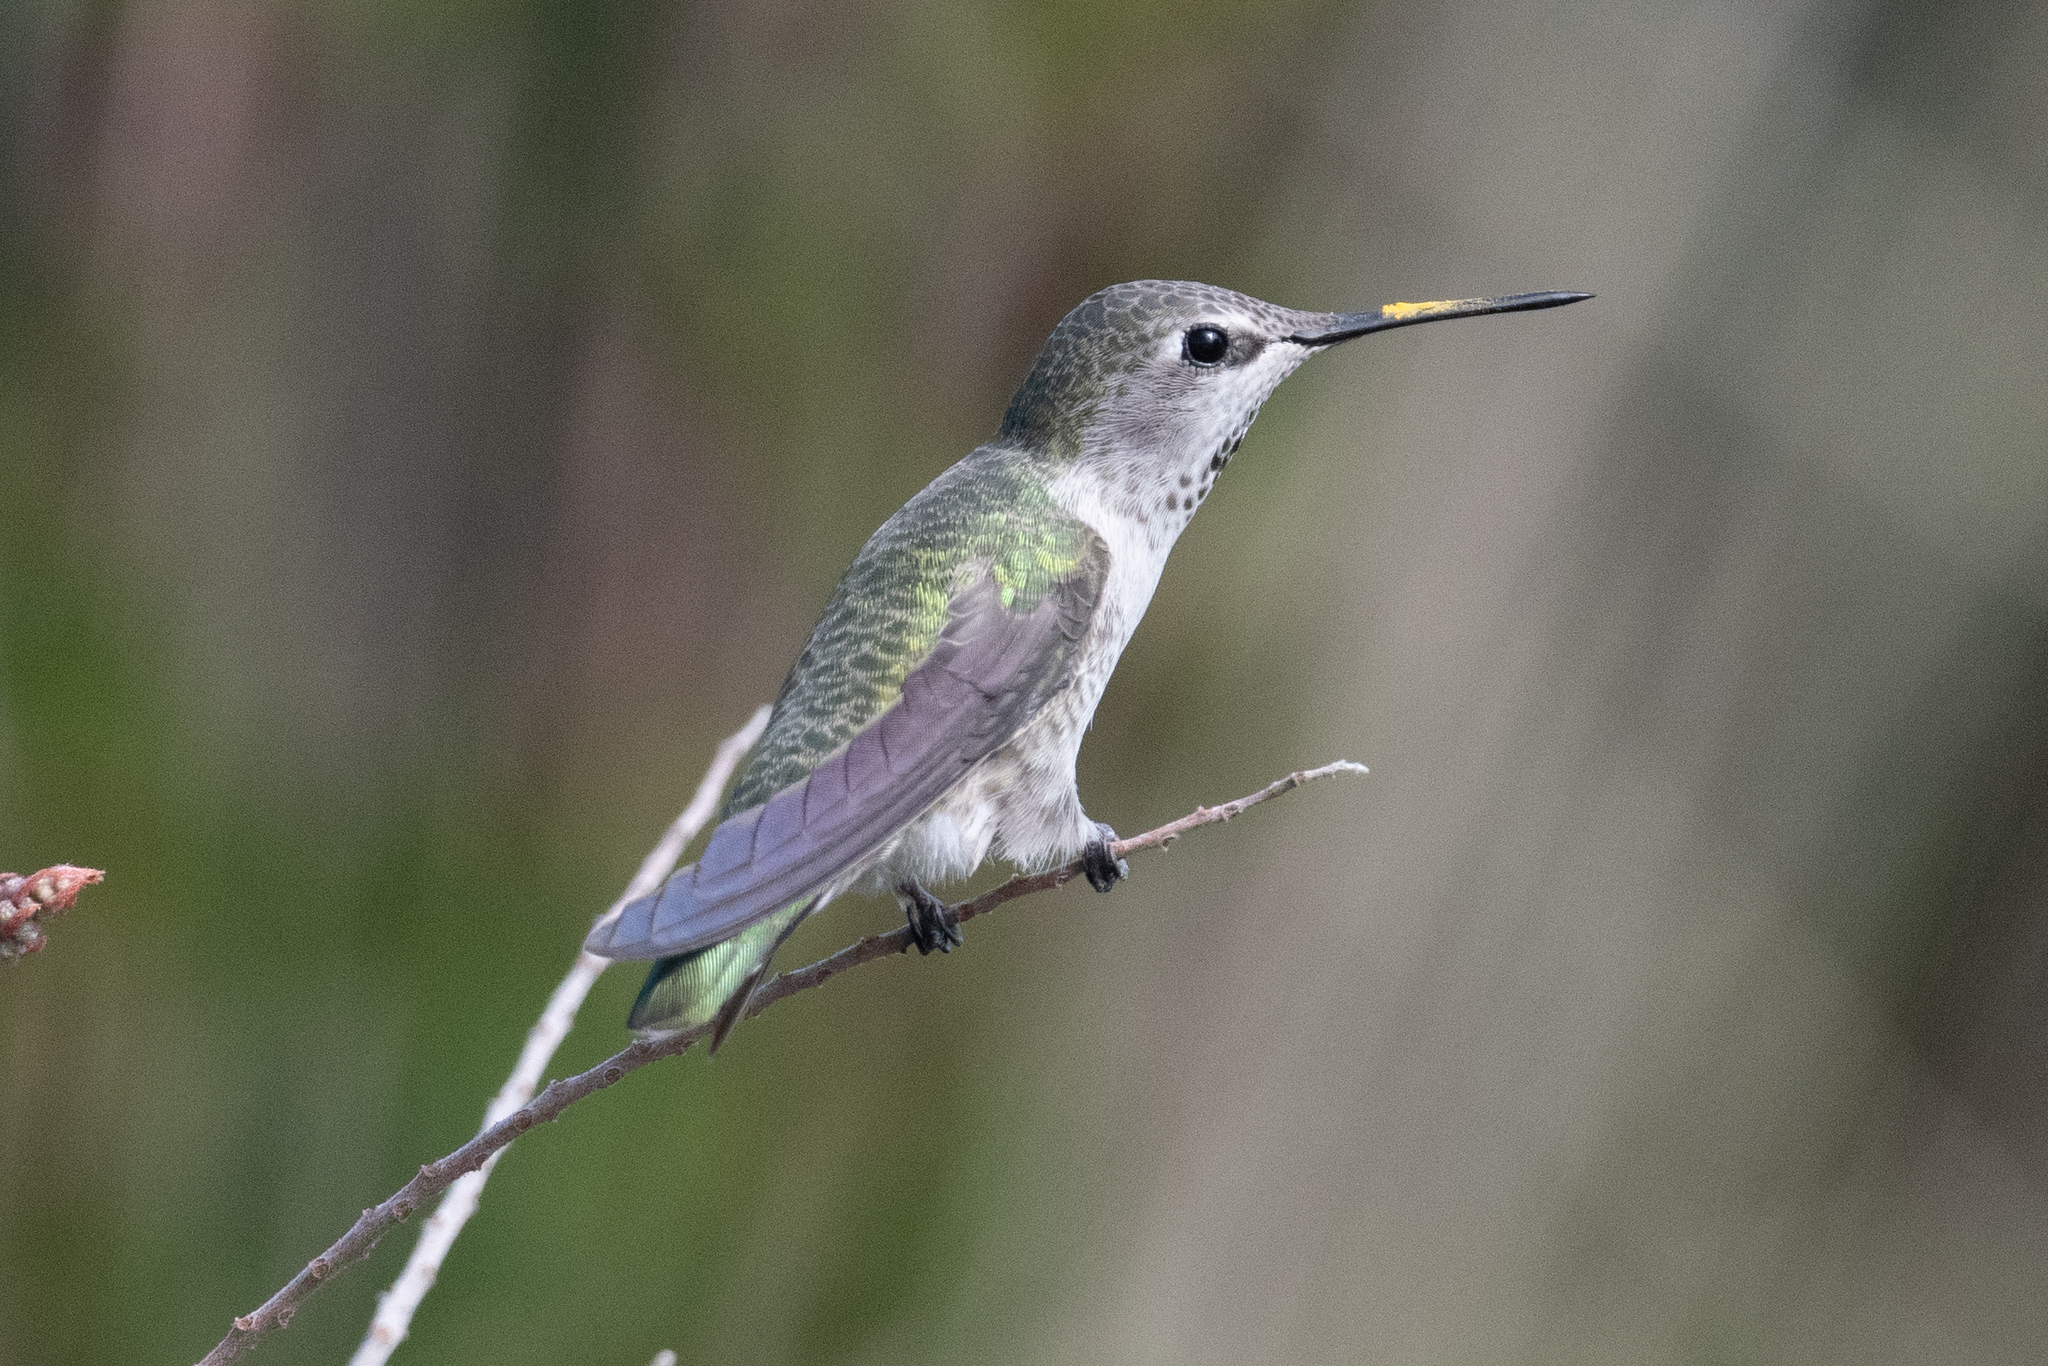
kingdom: Animalia
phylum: Chordata
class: Aves
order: Apodiformes
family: Trochilidae
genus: Calypte
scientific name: Calypte anna
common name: Anna's hummingbird
